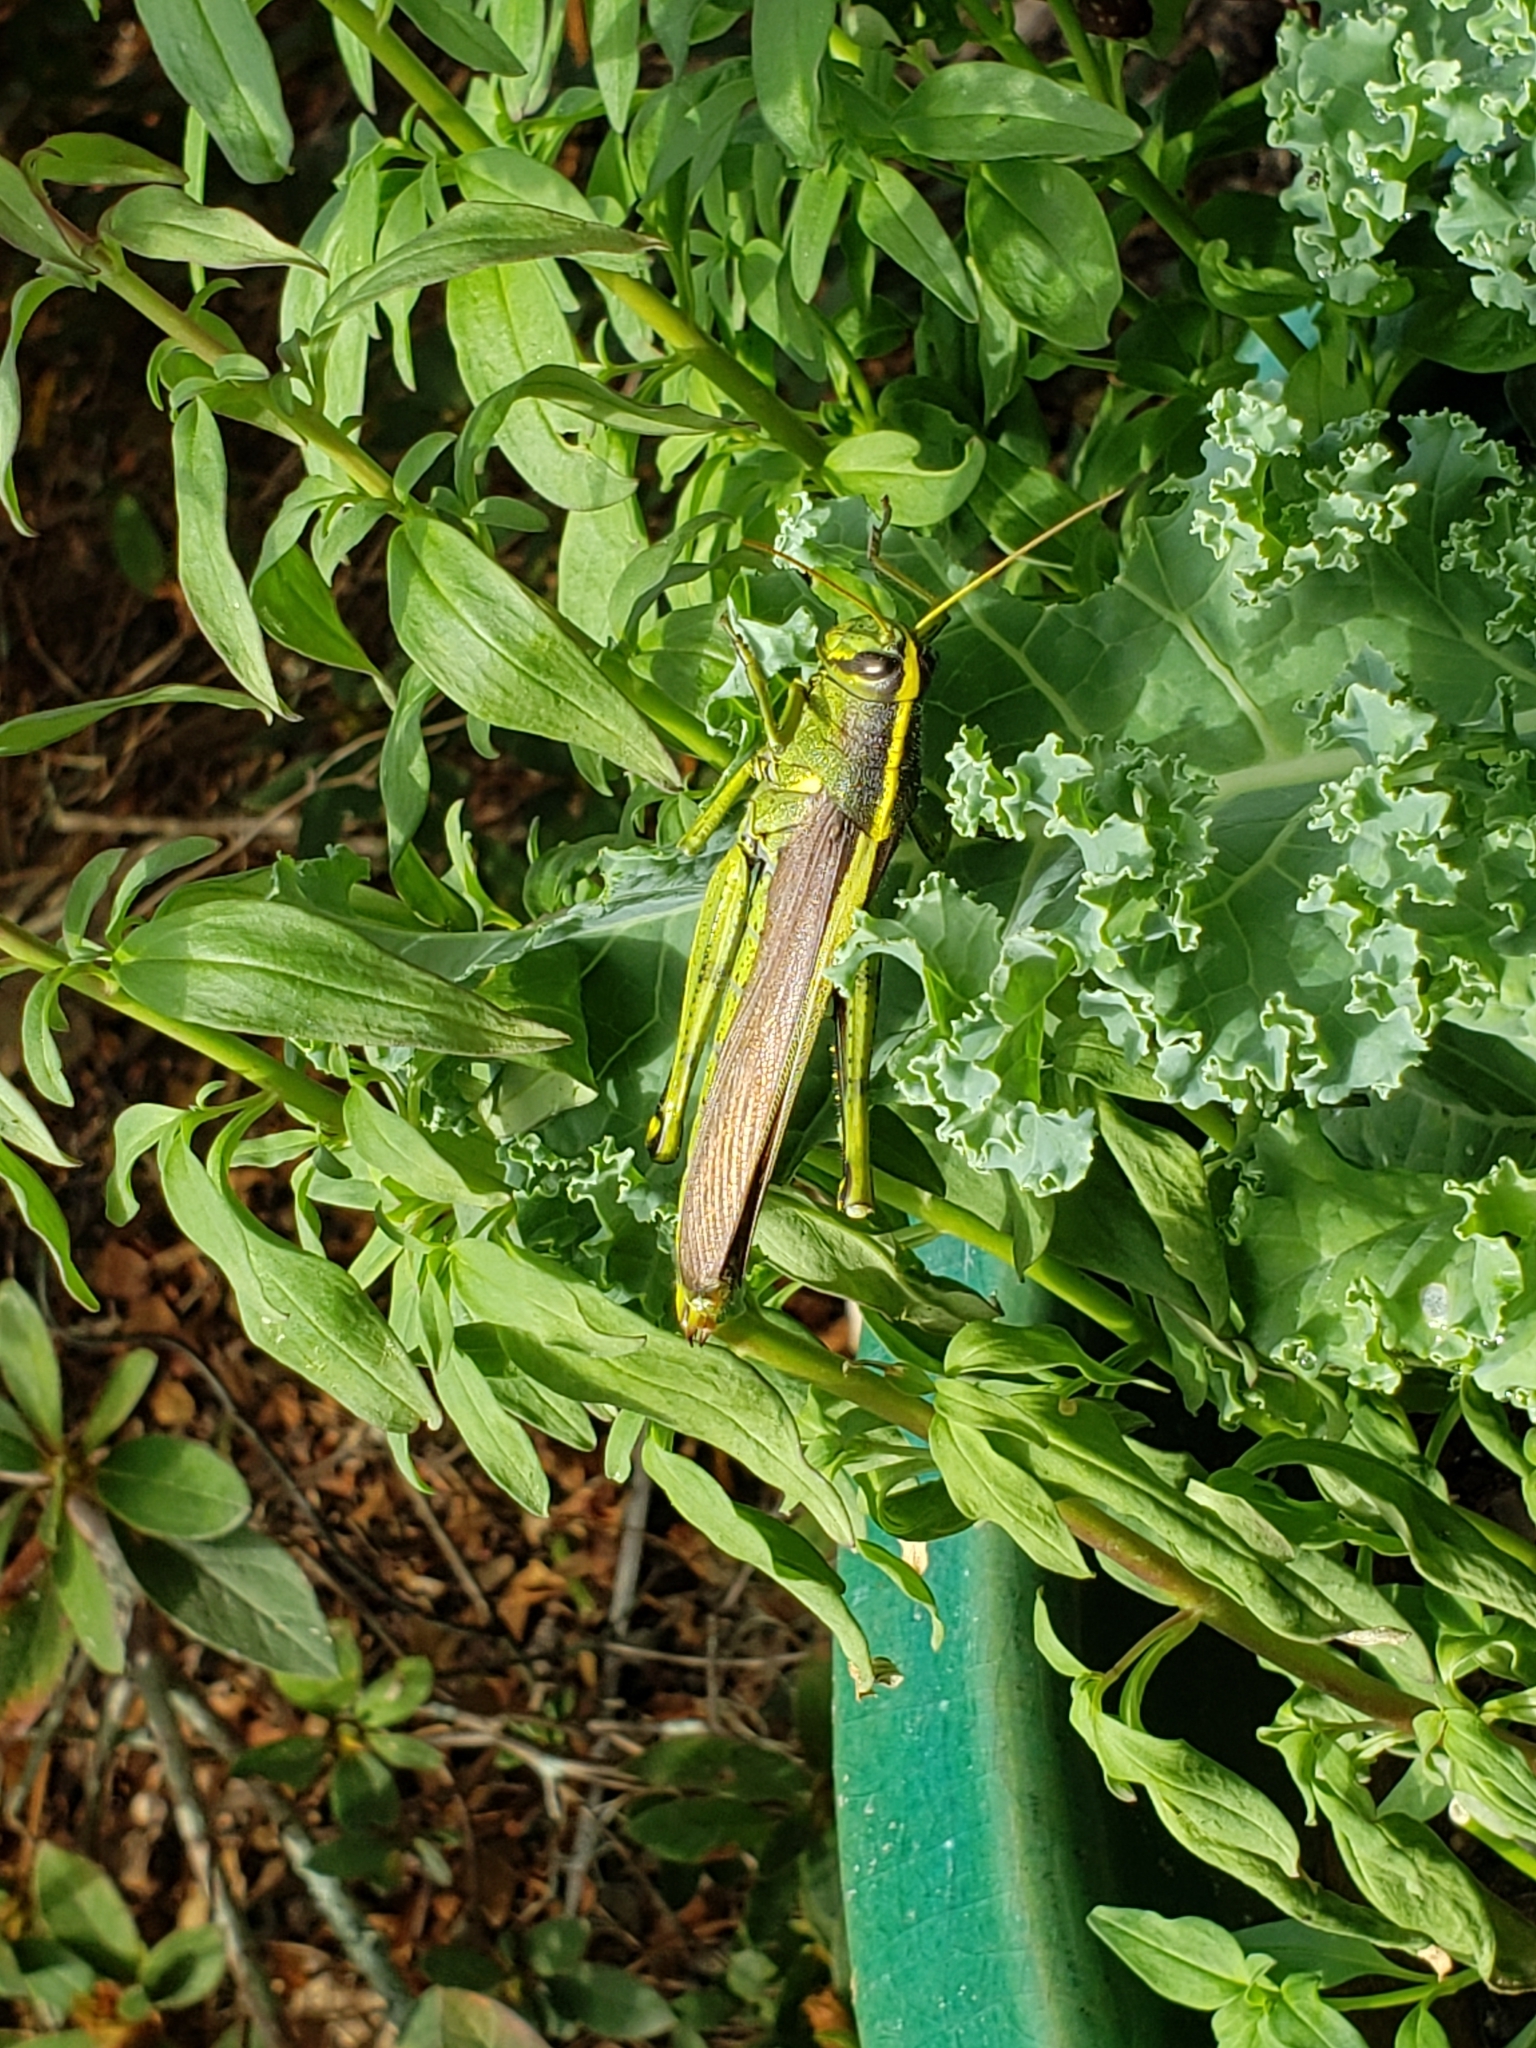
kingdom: Animalia
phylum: Arthropoda
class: Insecta
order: Orthoptera
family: Acrididae
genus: Schistocerca
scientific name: Schistocerca obscura
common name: Obscure bird grasshopper
